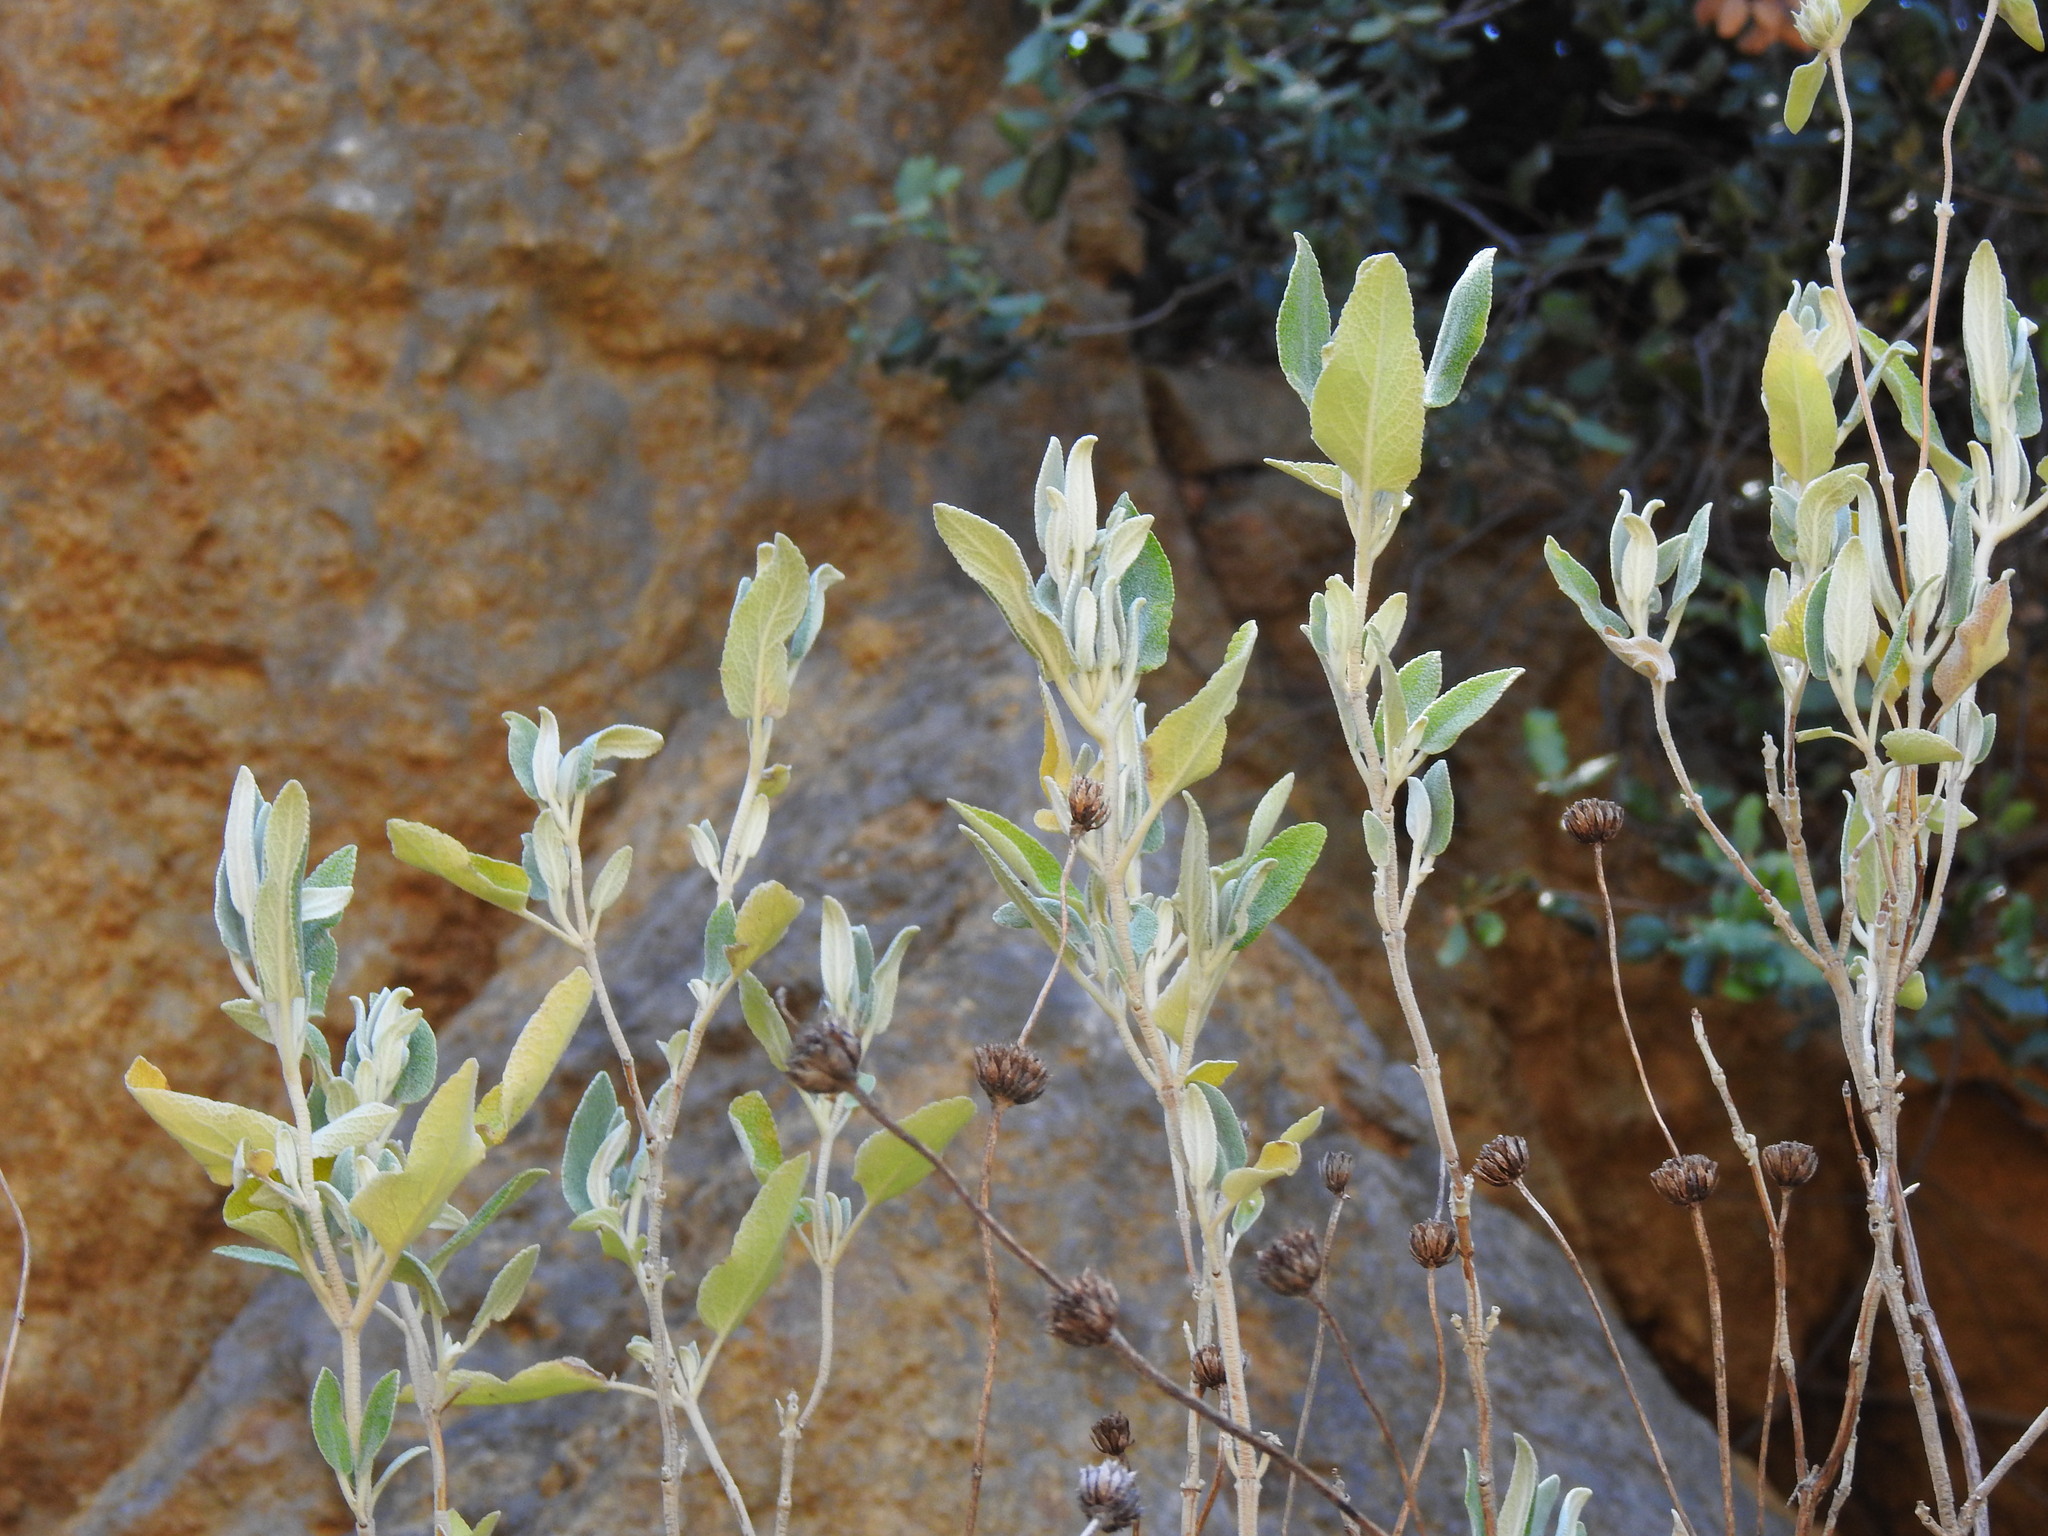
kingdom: Plantae
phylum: Tracheophyta
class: Magnoliopsida
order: Lamiales
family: Lamiaceae
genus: Phlomis
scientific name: Phlomis purpurea
